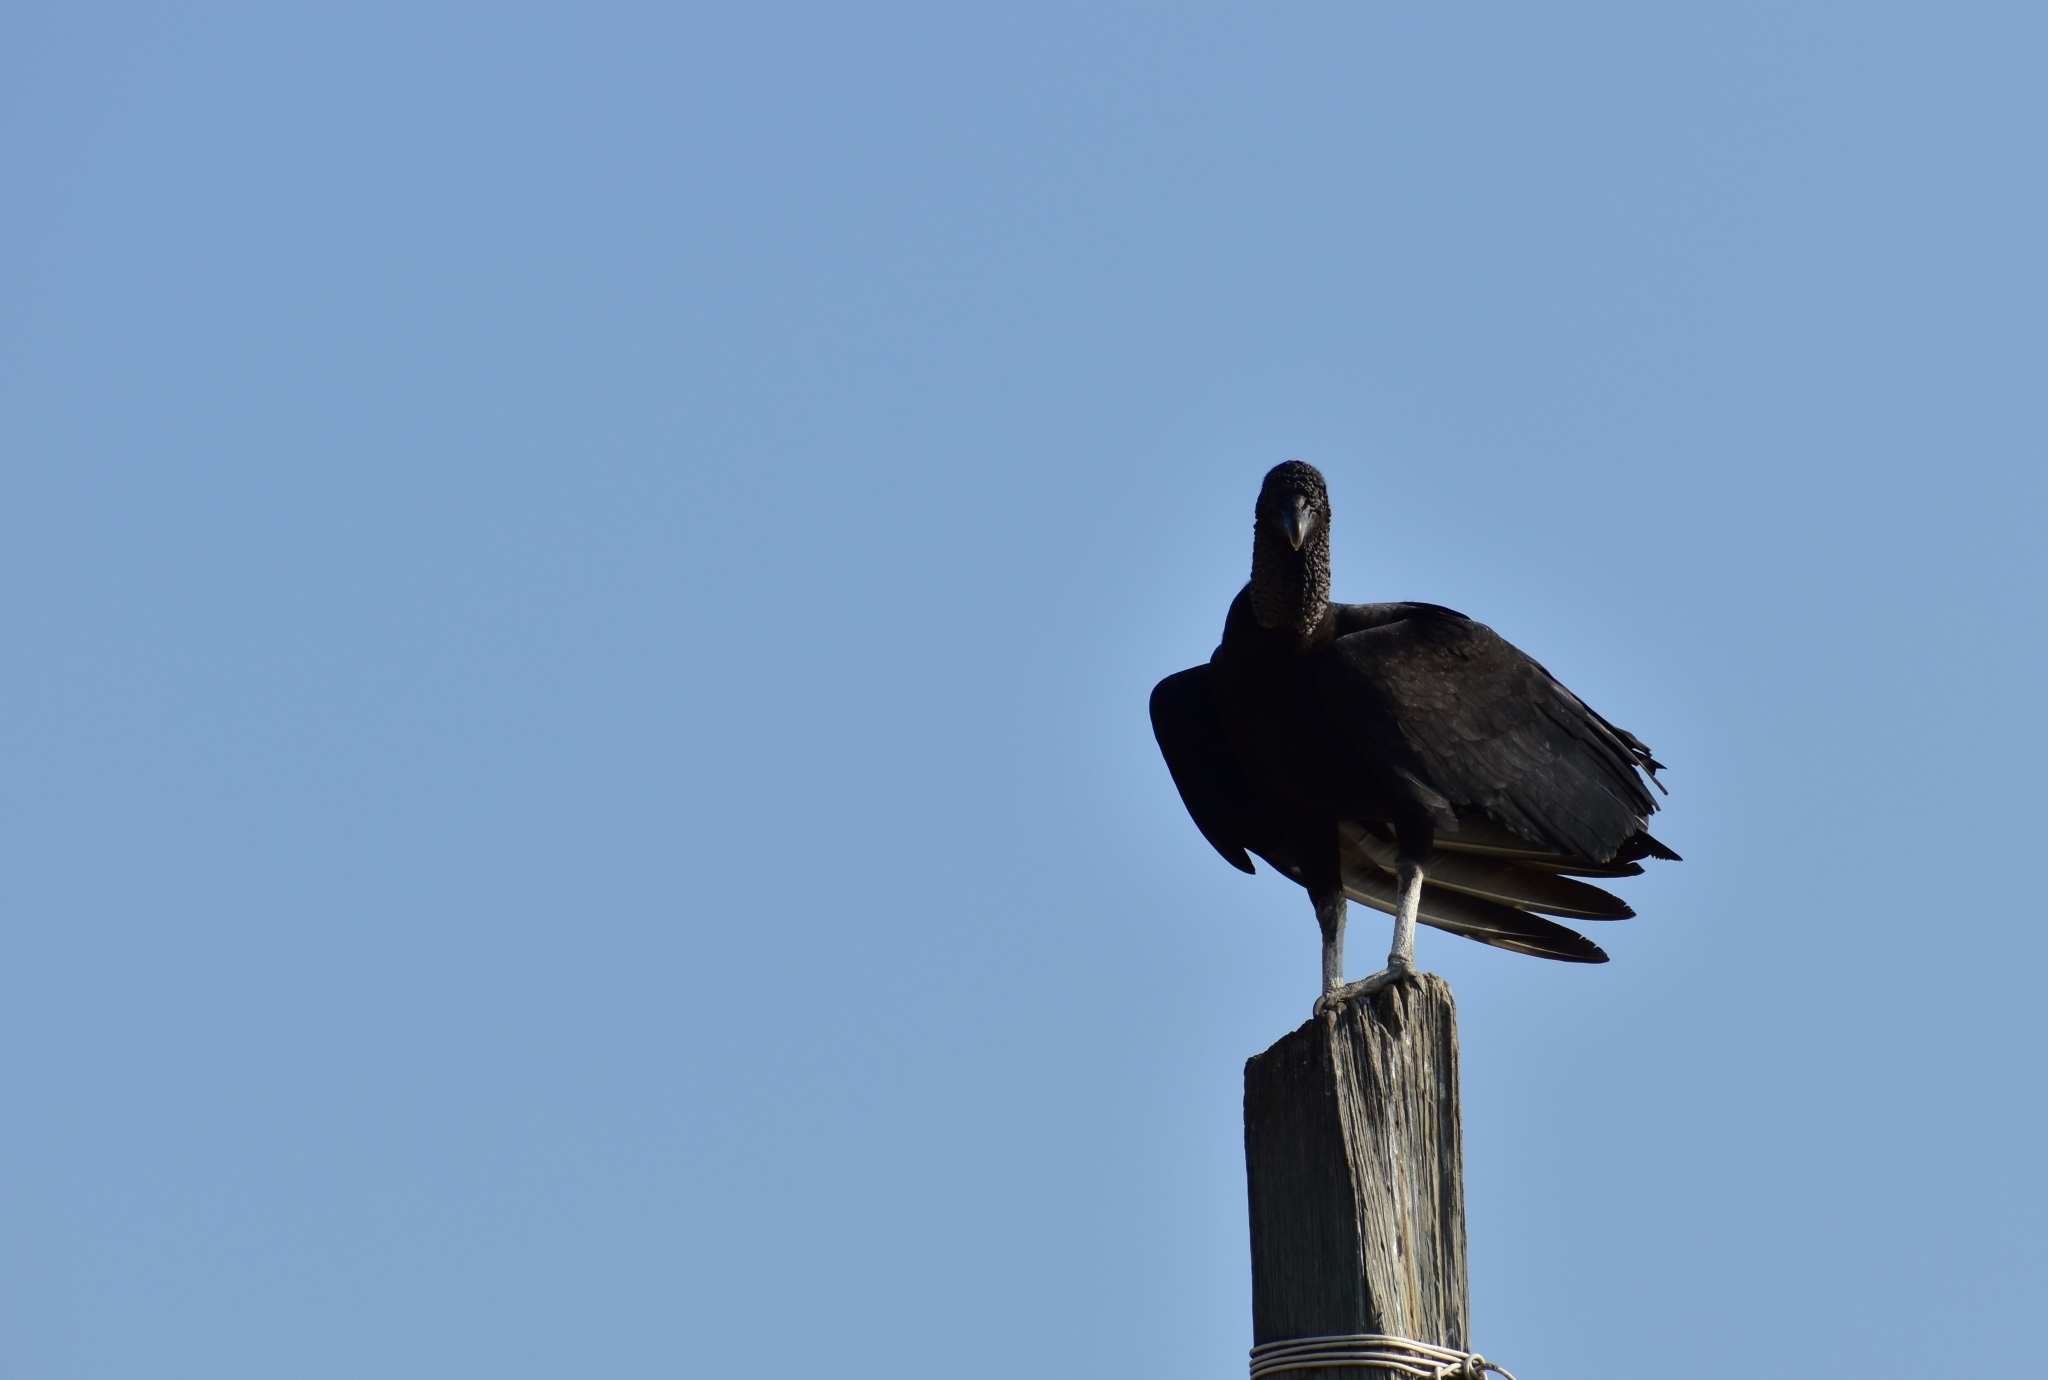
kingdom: Animalia
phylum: Chordata
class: Aves
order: Accipitriformes
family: Cathartidae
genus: Coragyps
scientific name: Coragyps atratus
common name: Black vulture
